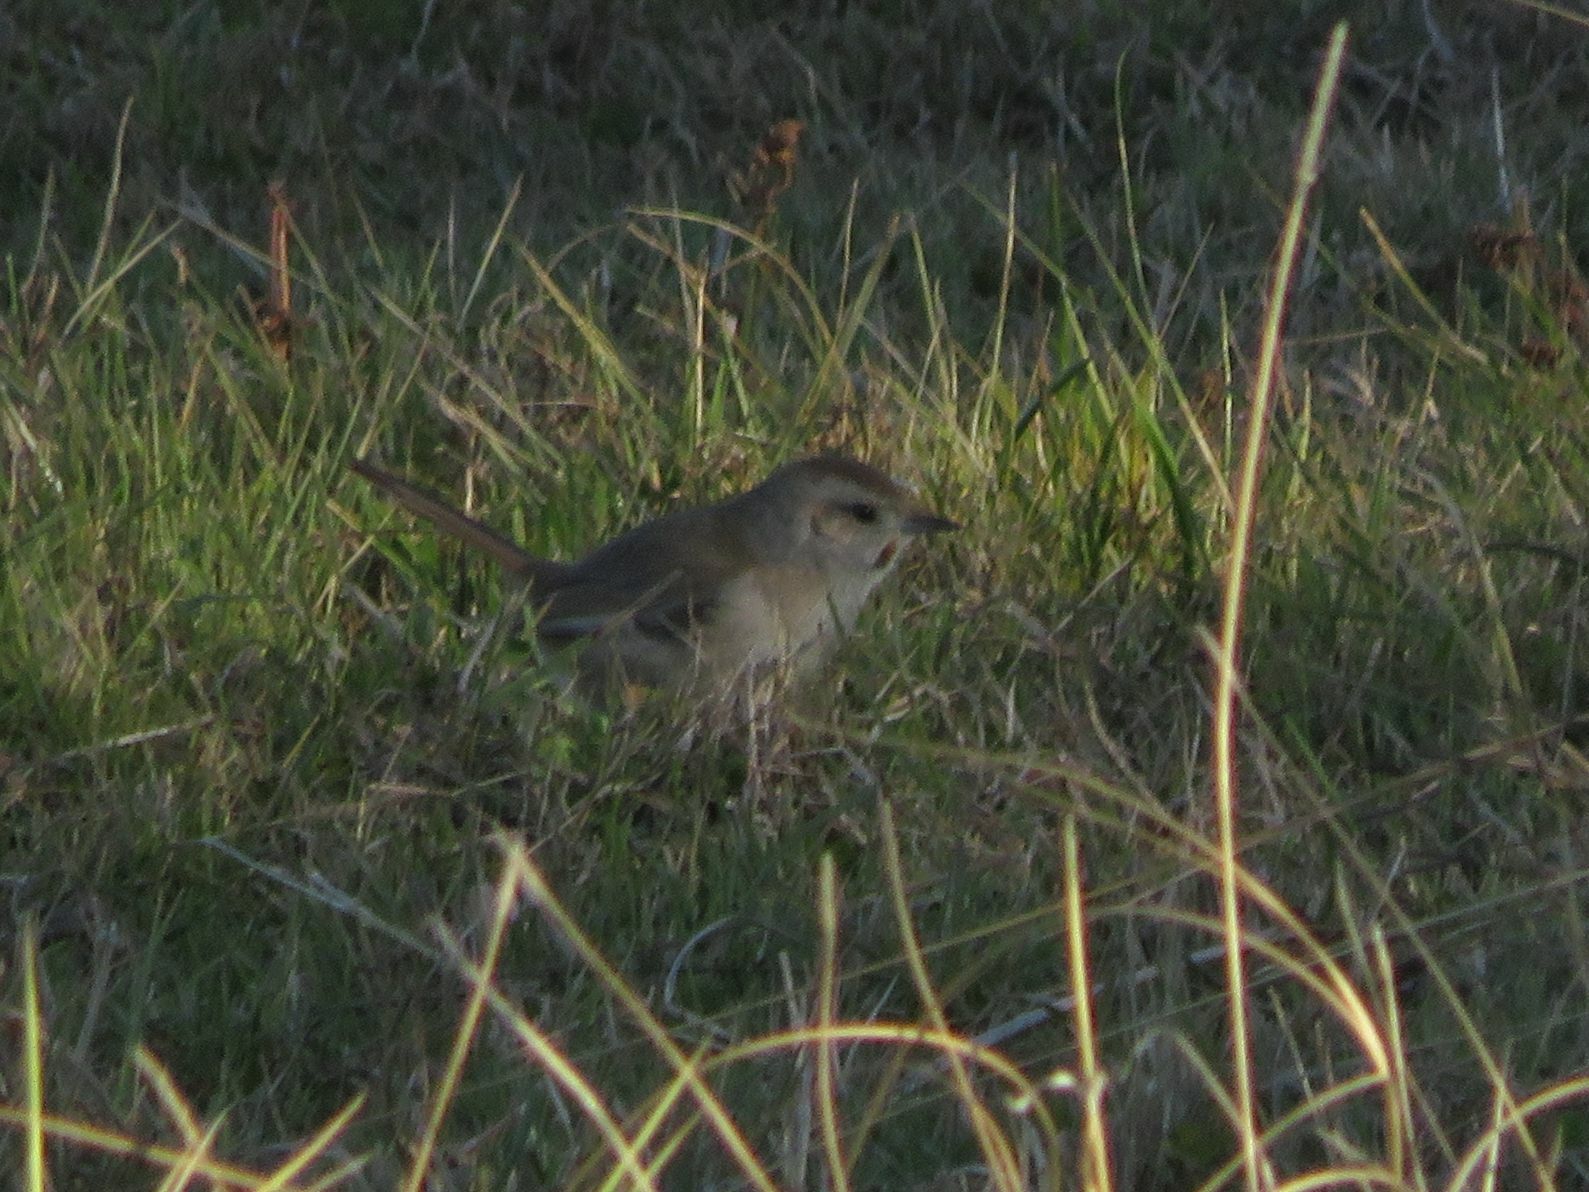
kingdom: Animalia
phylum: Chordata
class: Aves
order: Passeriformes
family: Furnariidae
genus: Asthenes
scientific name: Asthenes baeri
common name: Short-billed canastero
